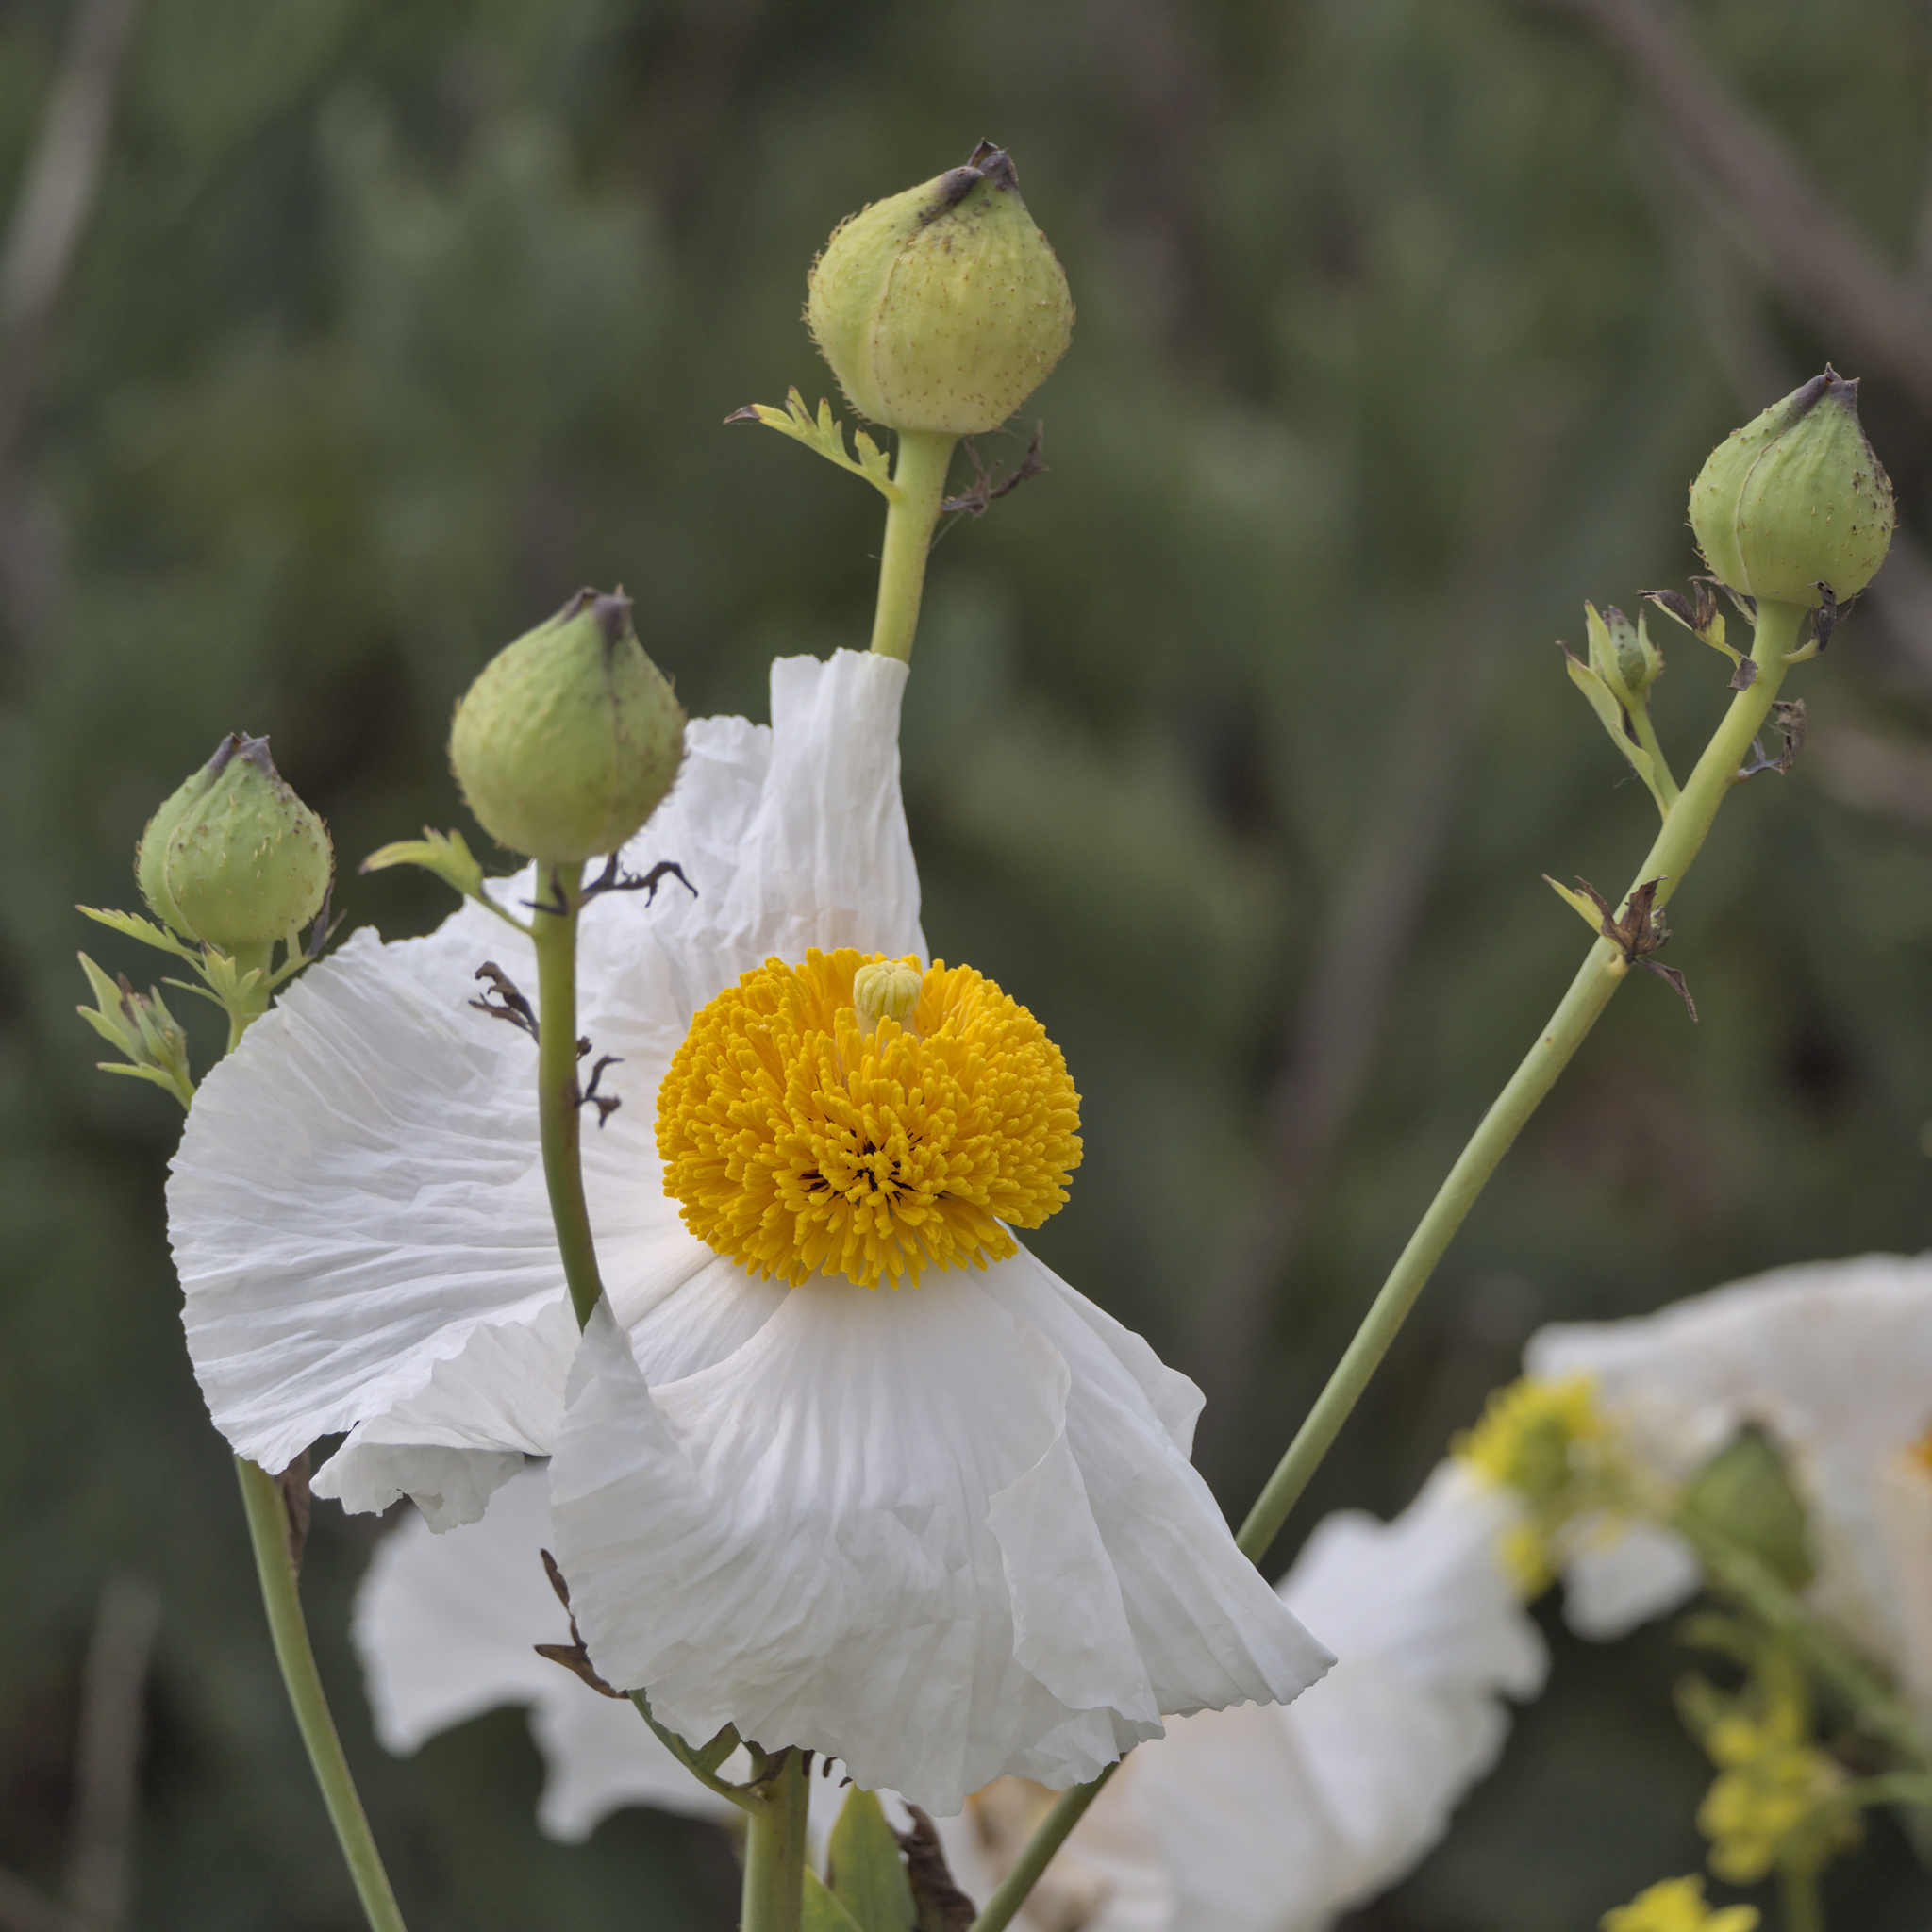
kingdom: Plantae
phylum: Tracheophyta
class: Magnoliopsida
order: Ranunculales
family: Papaveraceae
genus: Romneya
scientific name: Romneya
